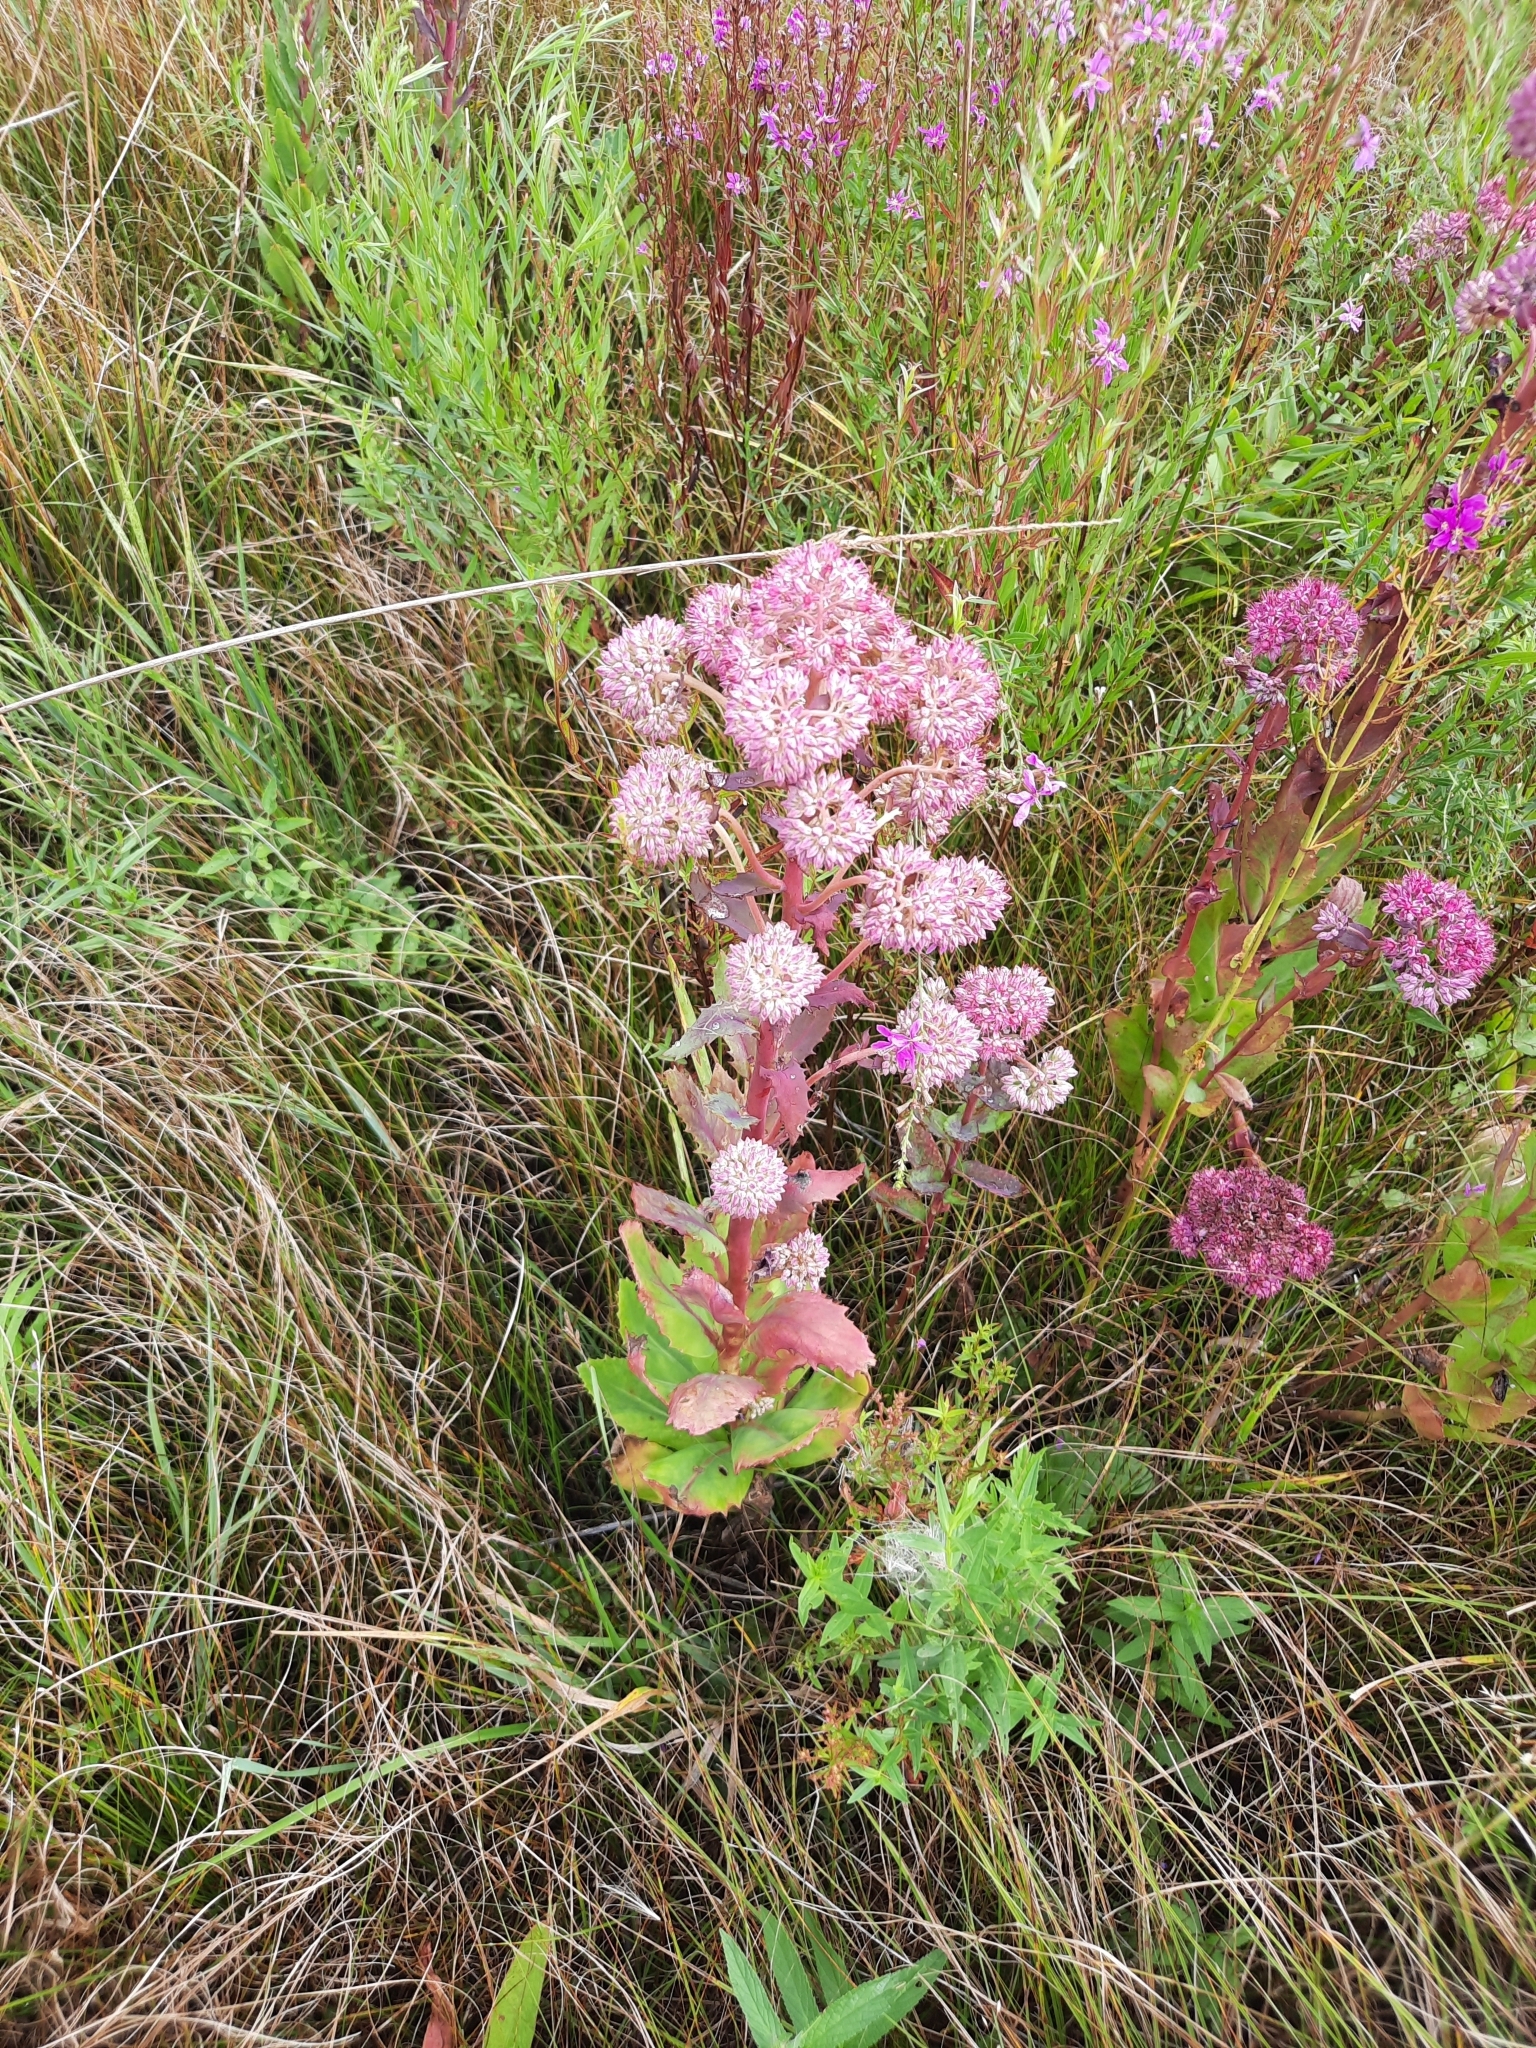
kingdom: Plantae
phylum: Tracheophyta
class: Magnoliopsida
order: Saxifragales
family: Crassulaceae
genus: Hylotelephium
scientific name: Hylotelephium telephium
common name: Live-forever
